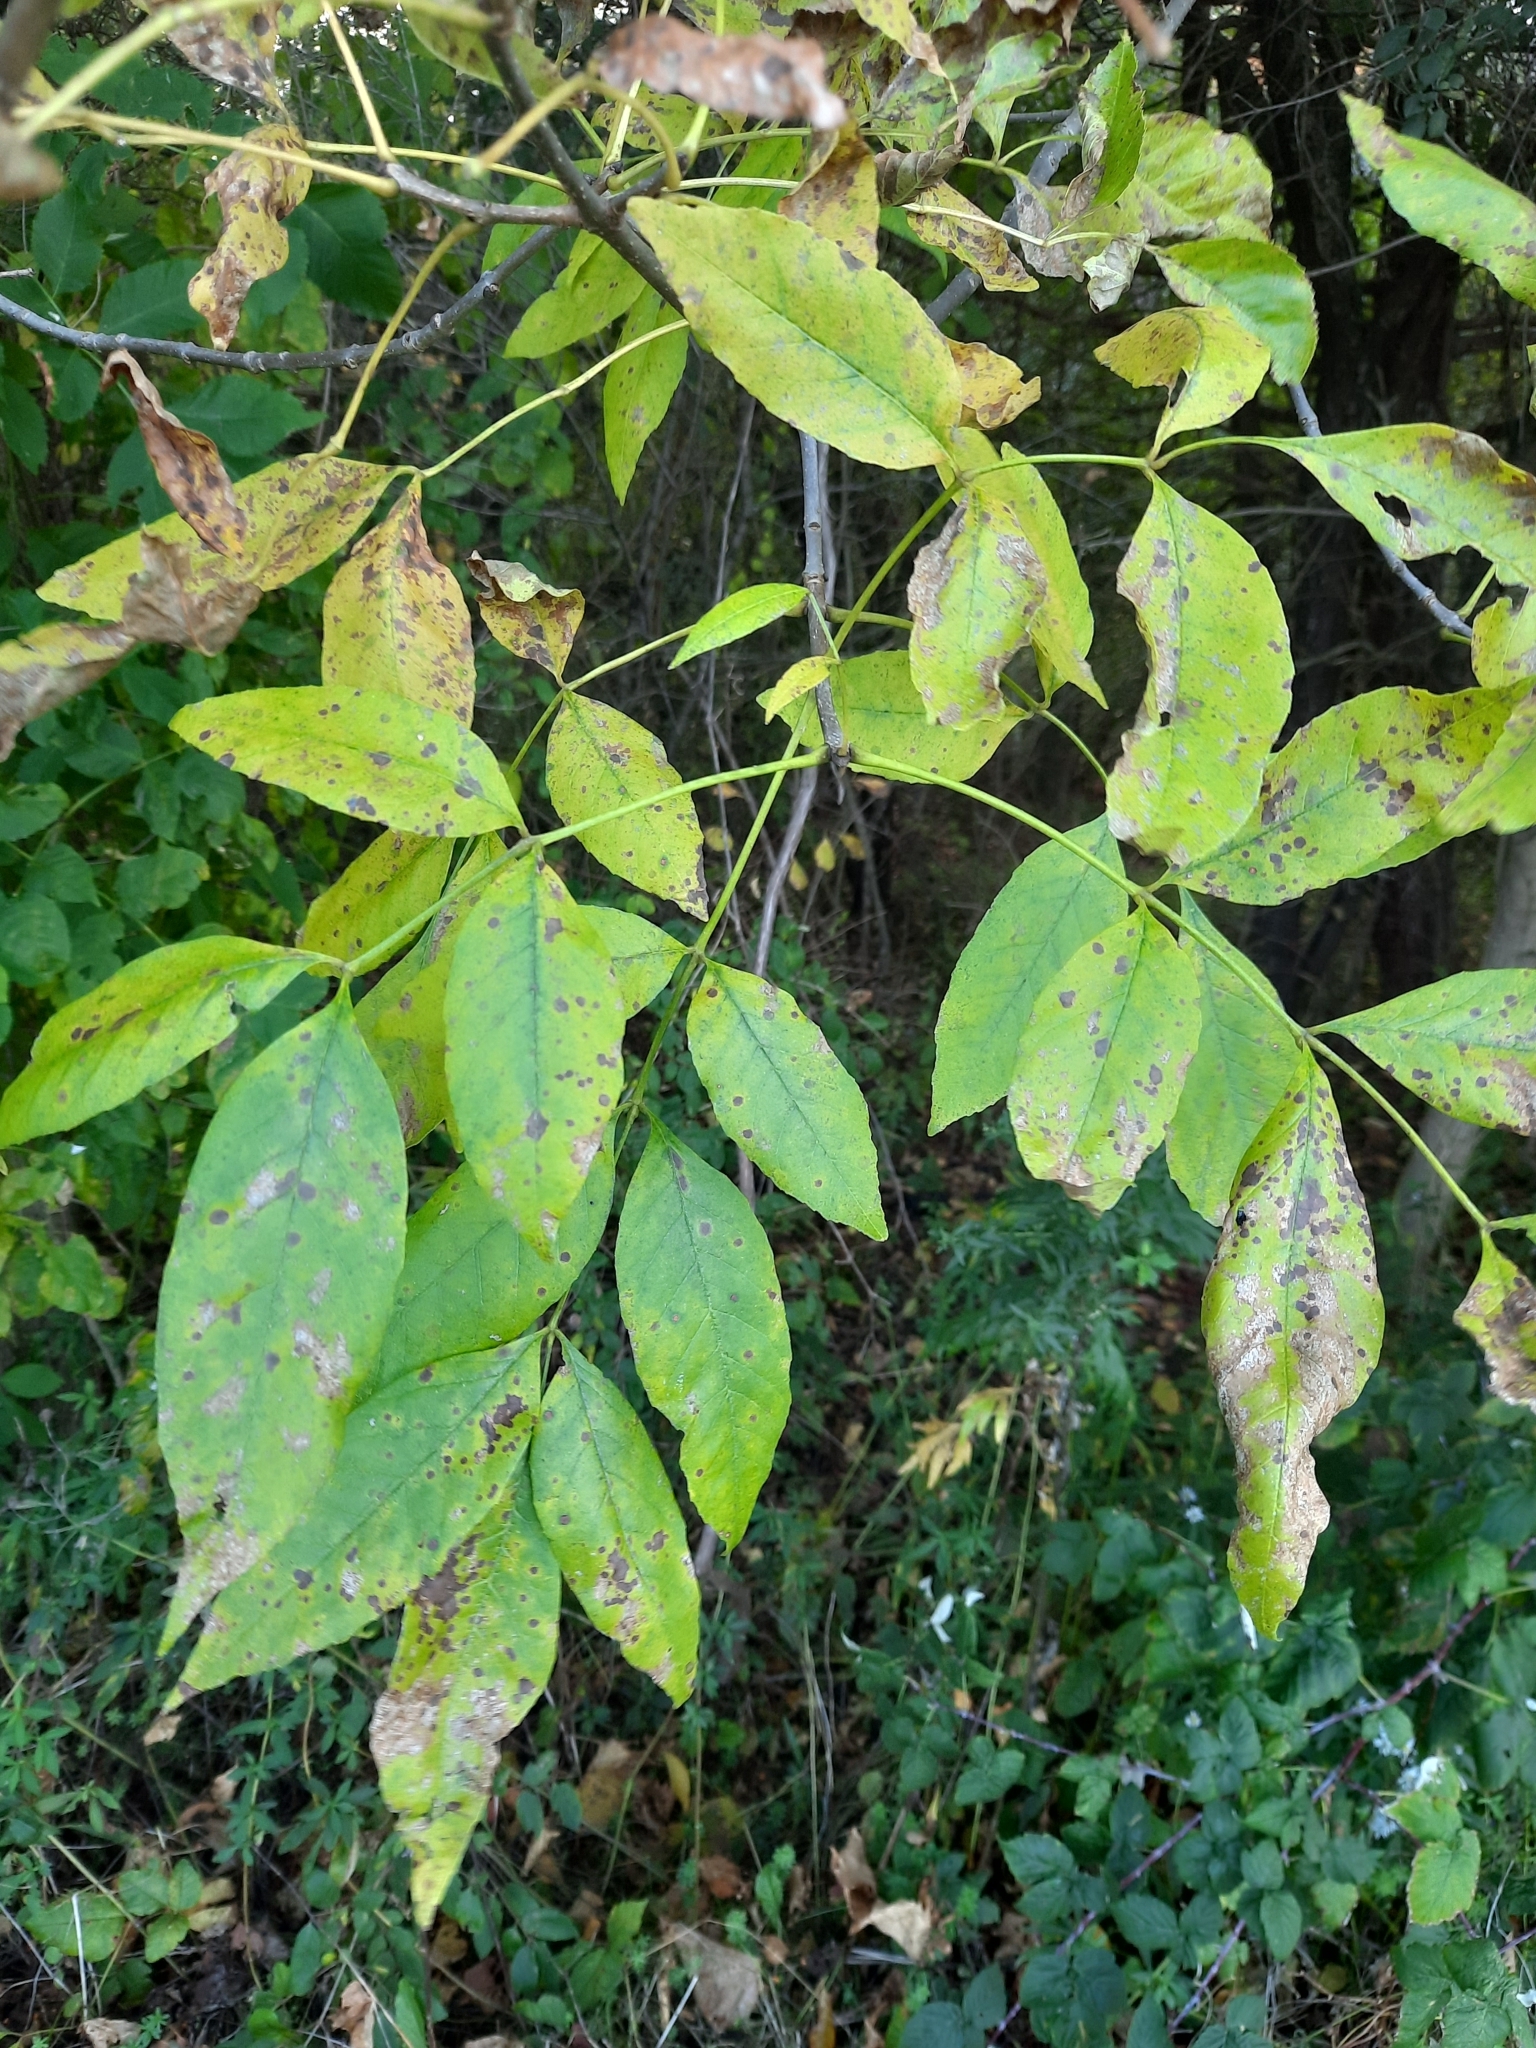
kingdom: Plantae
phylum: Tracheophyta
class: Magnoliopsida
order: Lamiales
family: Oleaceae
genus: Fraxinus
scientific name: Fraxinus pennsylvanica
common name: Green ash
